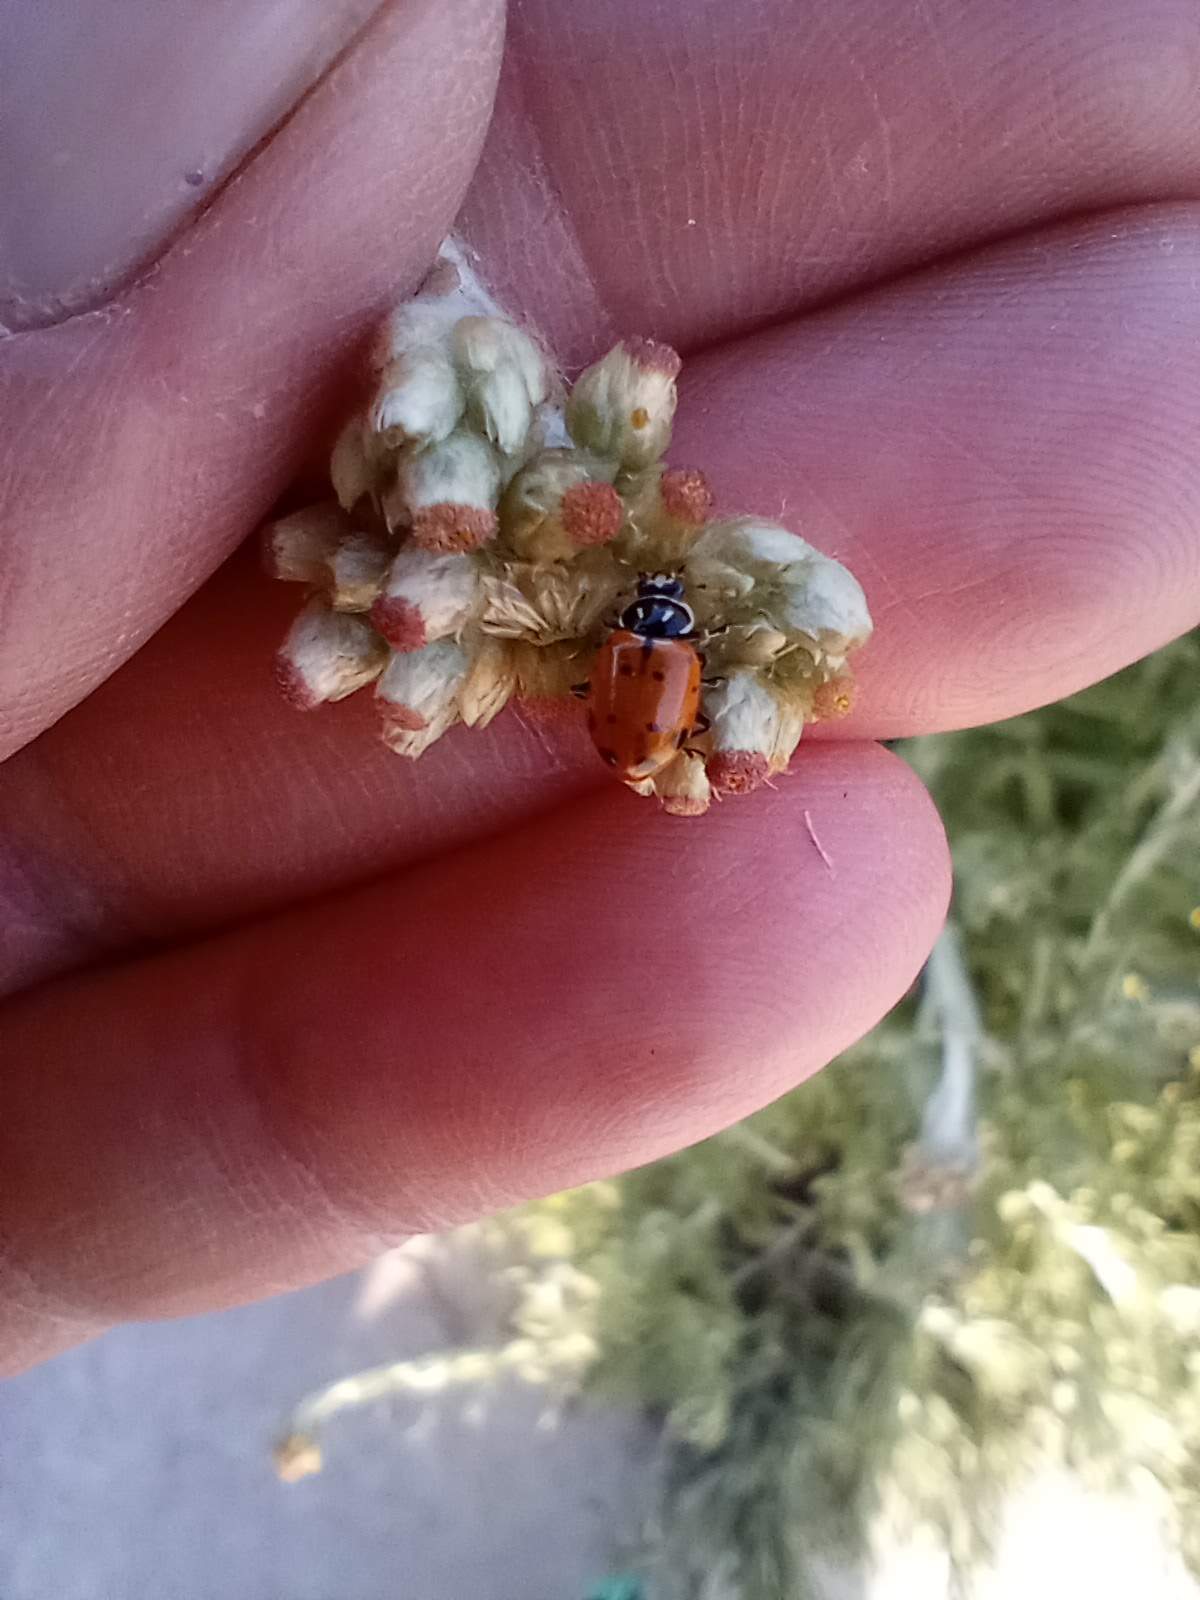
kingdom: Animalia
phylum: Arthropoda
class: Insecta
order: Coleoptera
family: Coccinellidae
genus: Hippodamia
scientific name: Hippodamia convergens
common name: Convergent lady beetle
